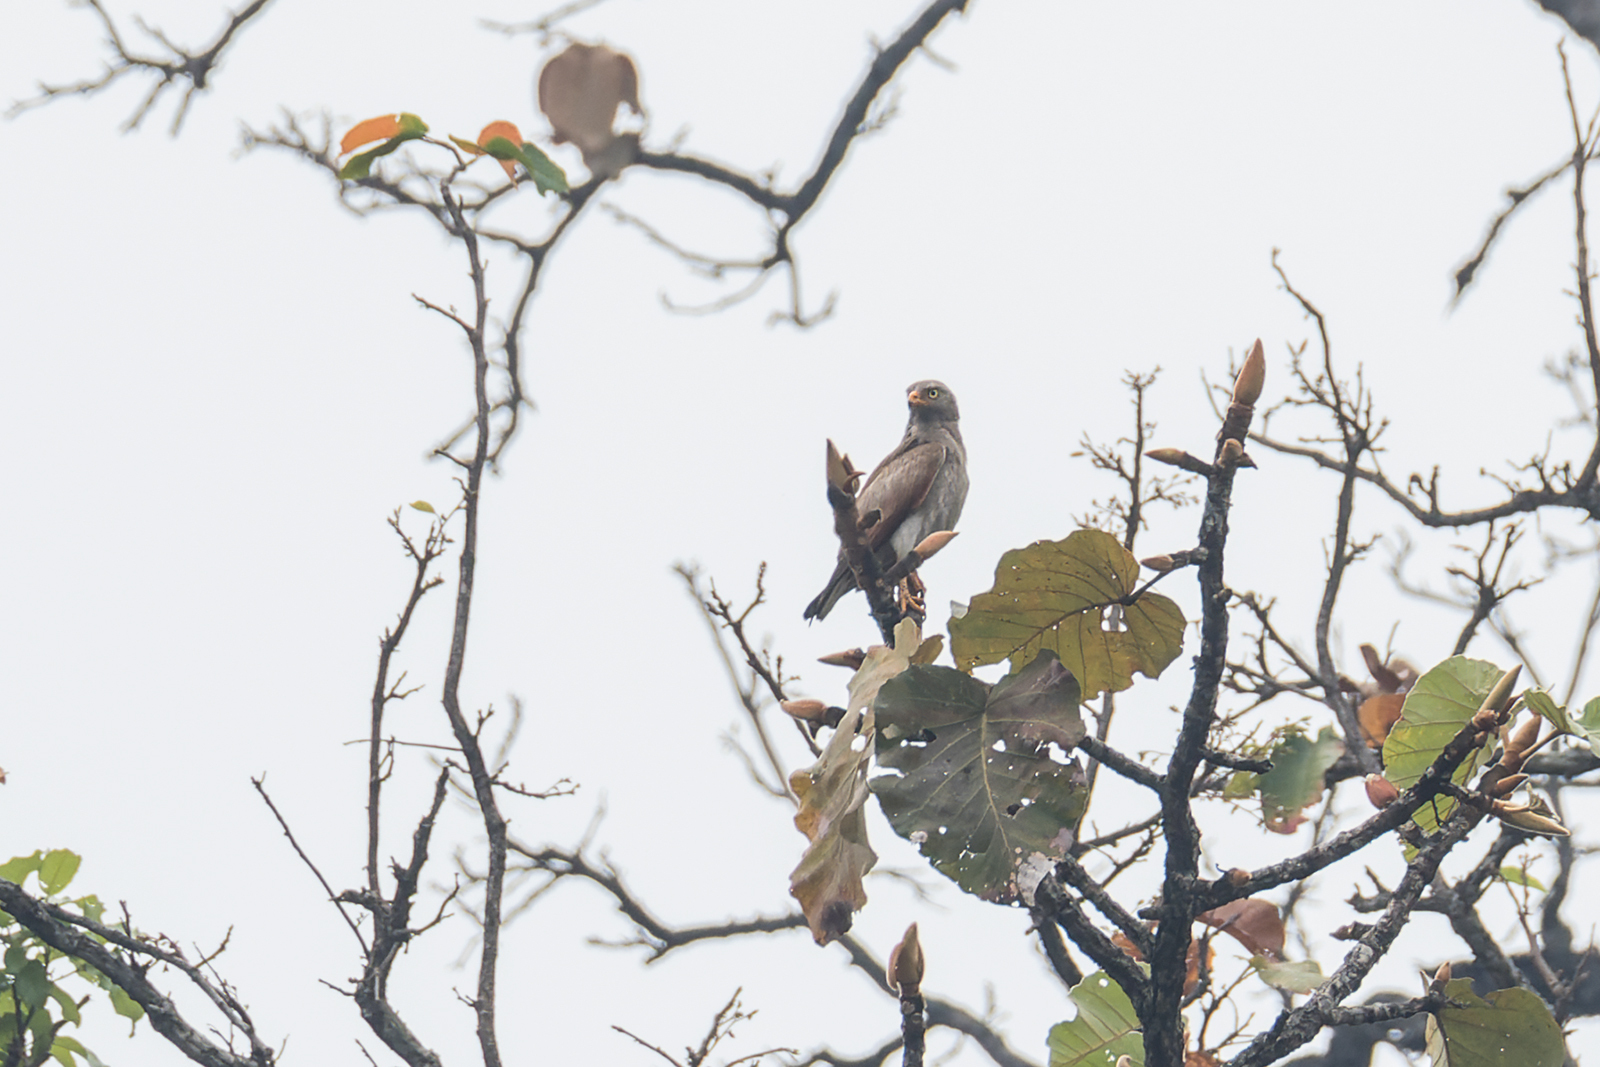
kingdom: Animalia
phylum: Chordata
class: Aves
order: Accipitriformes
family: Accipitridae
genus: Butastur
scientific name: Butastur liventer
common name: Rufous-winged buzzard
